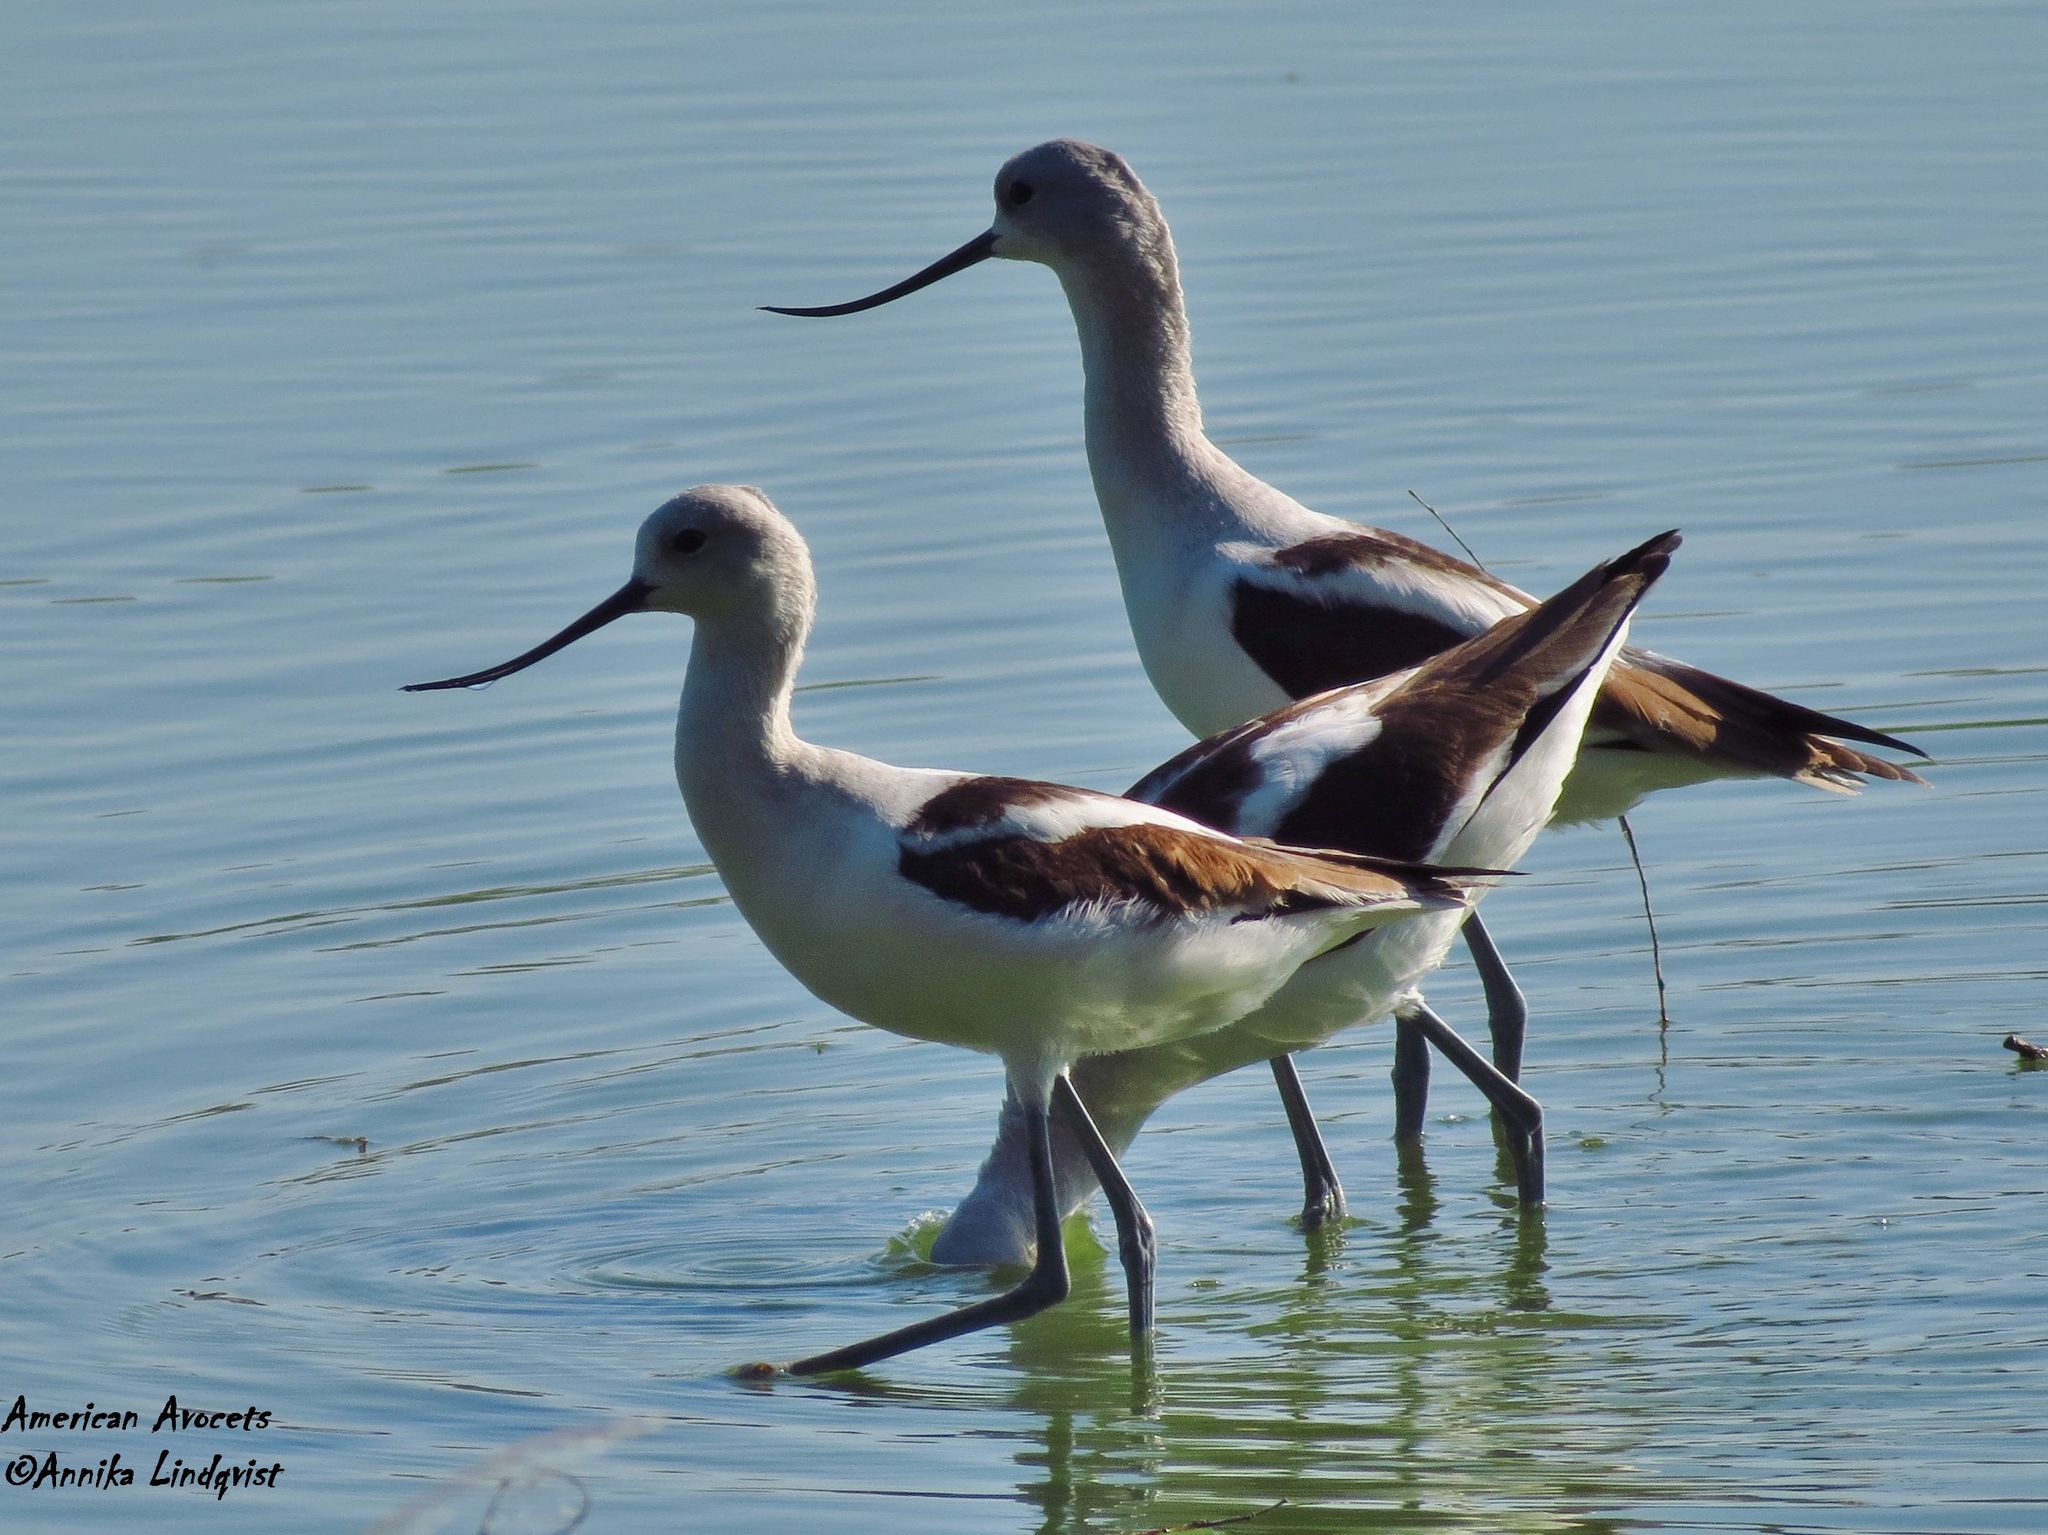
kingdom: Animalia
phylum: Chordata
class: Aves
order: Charadriiformes
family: Recurvirostridae
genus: Recurvirostra
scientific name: Recurvirostra americana
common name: American avocet
